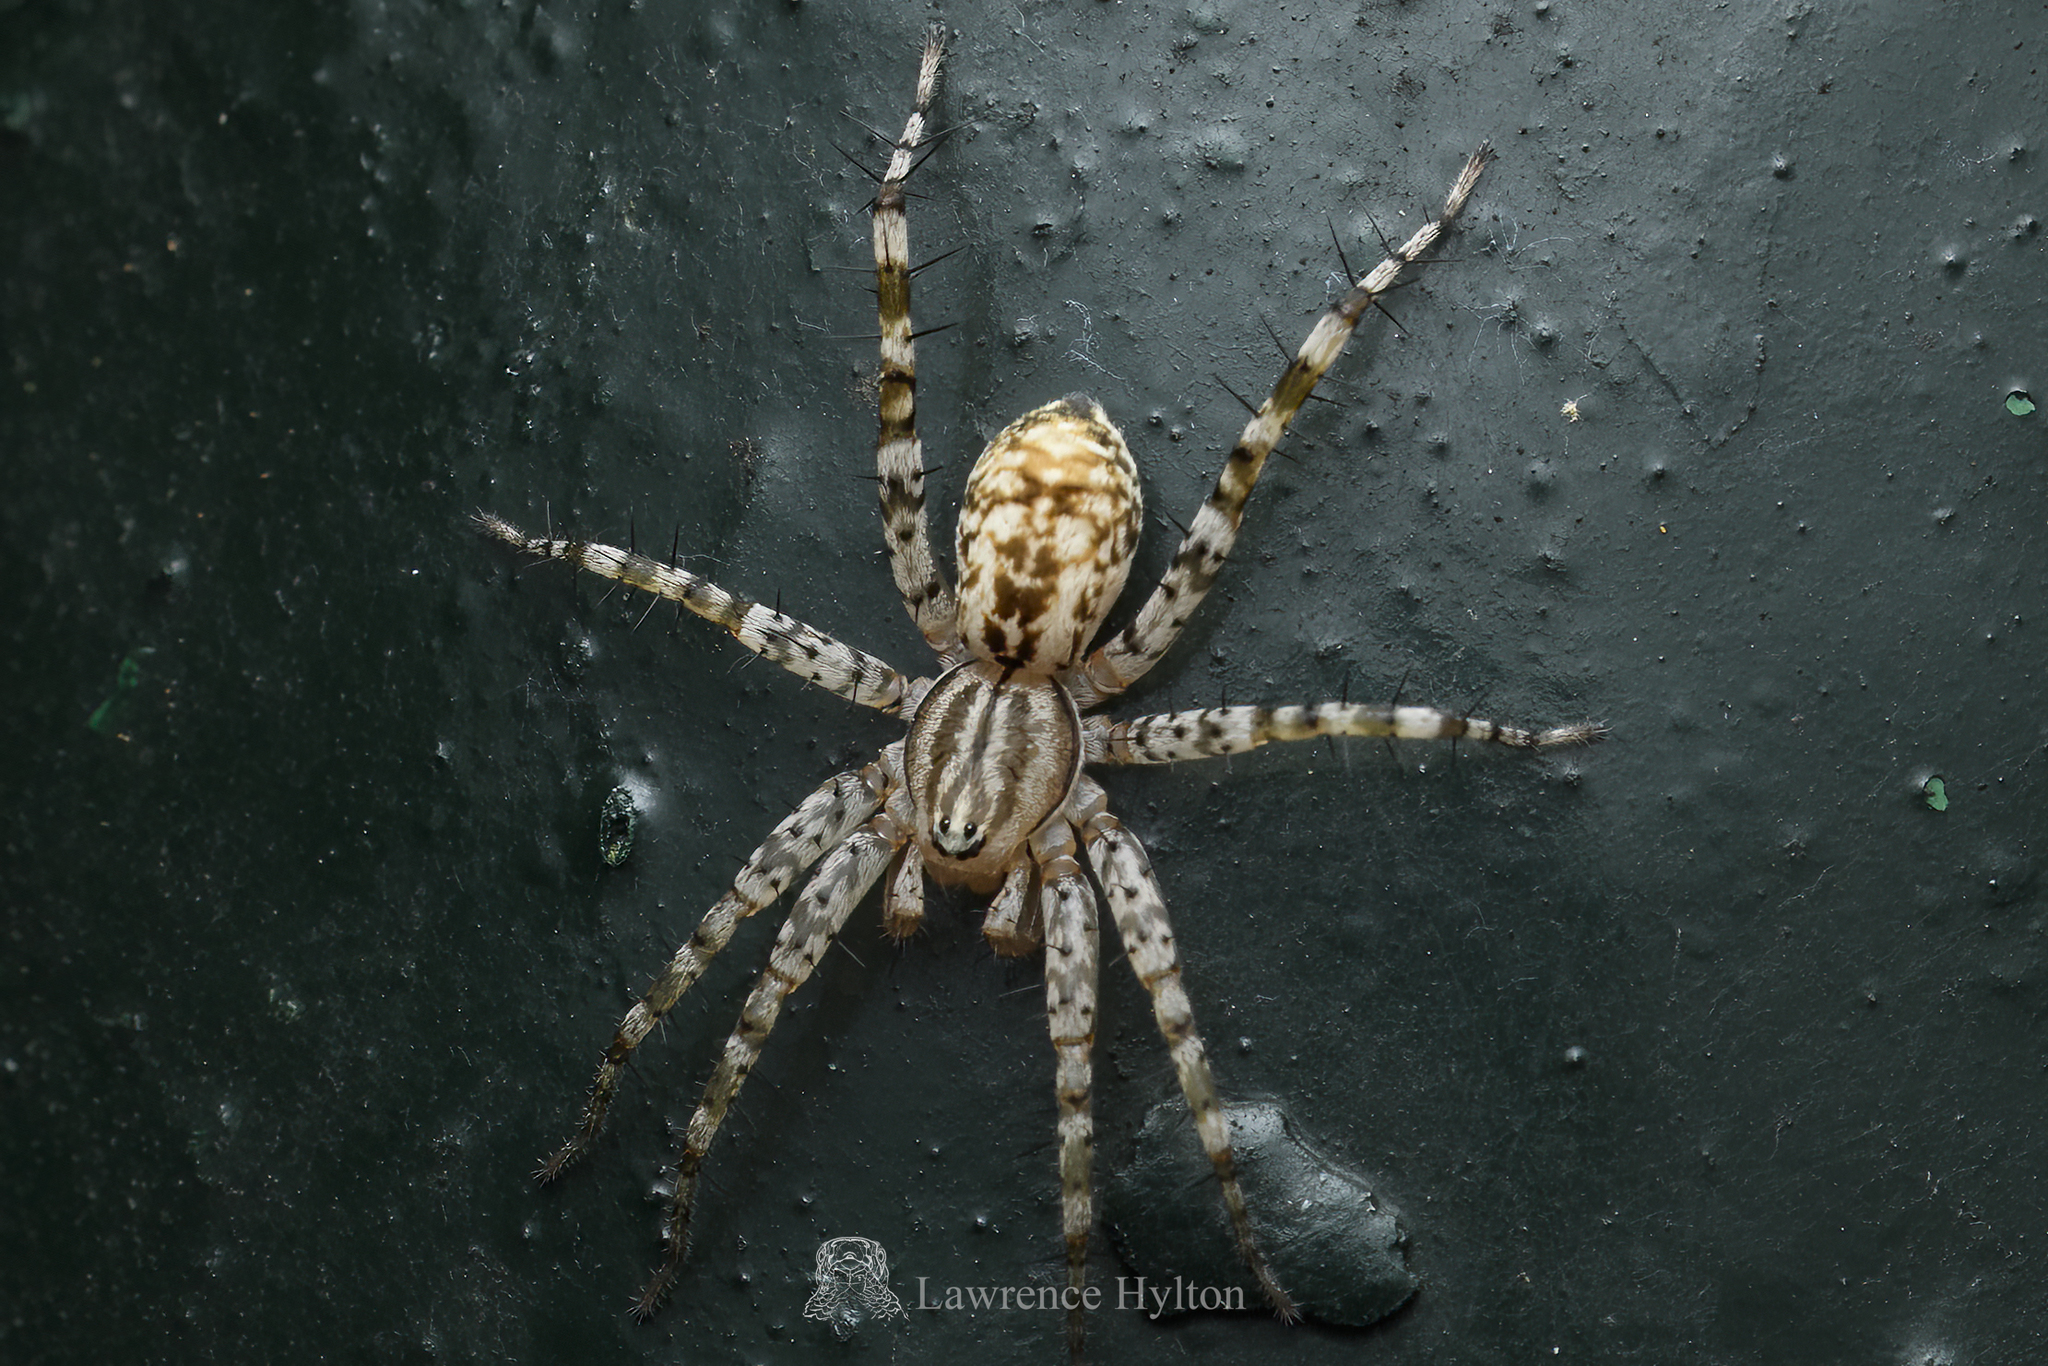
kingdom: Animalia
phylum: Arthropoda
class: Arachnida
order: Araneae
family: Corinnidae
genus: Echinax
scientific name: Echinax panache
